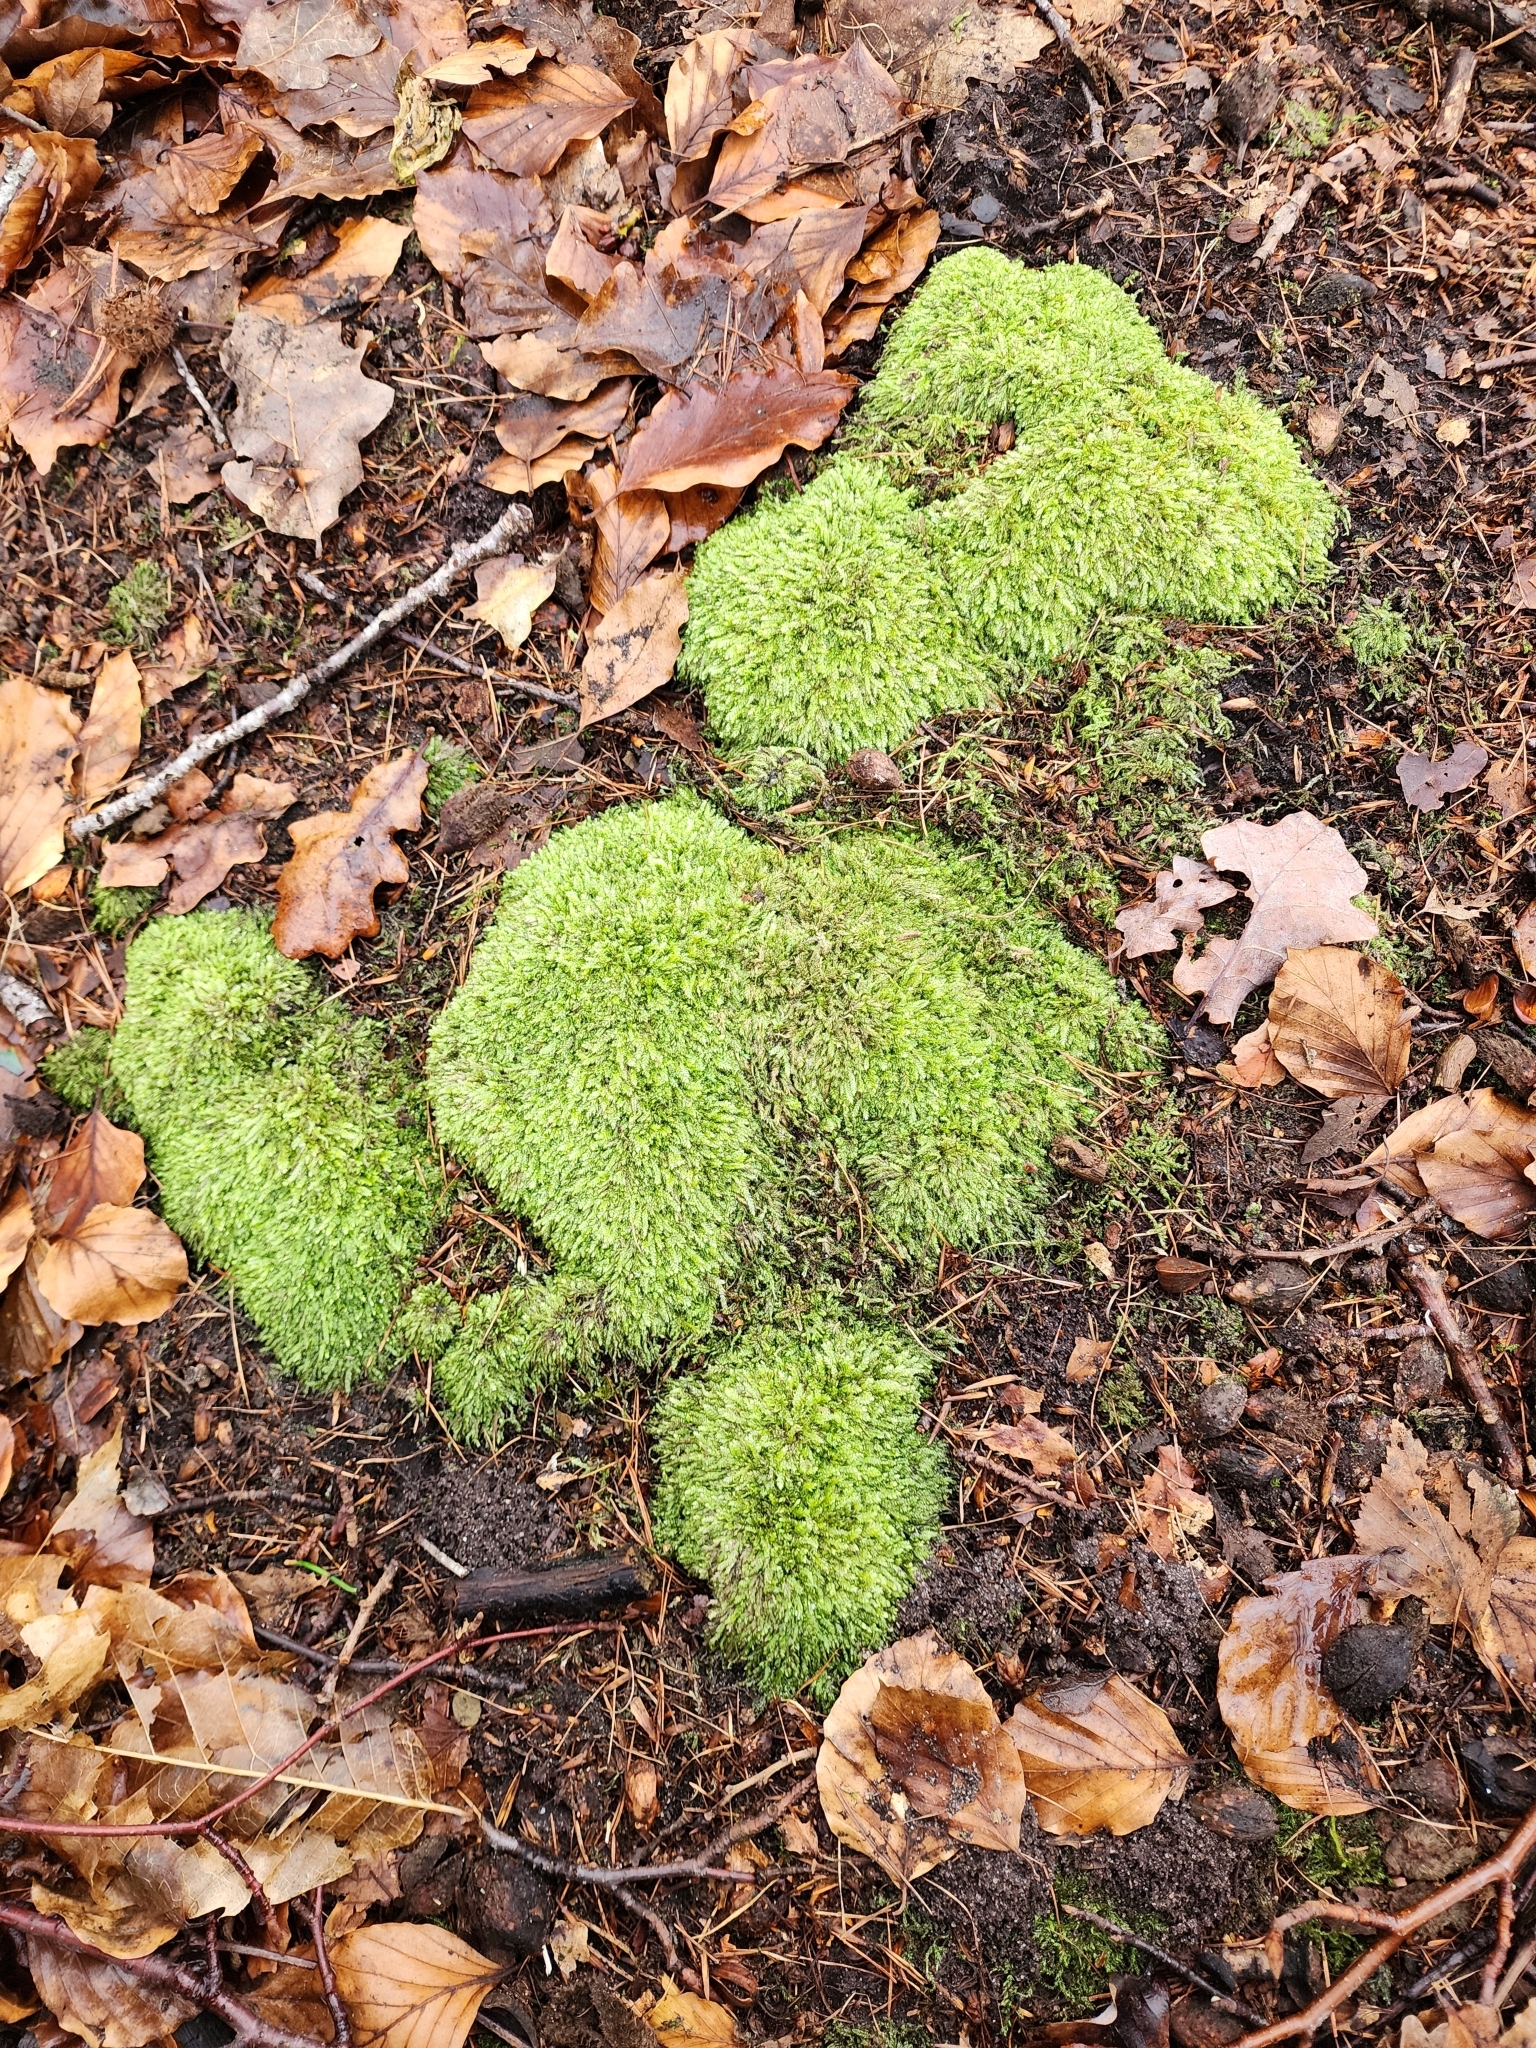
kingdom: Plantae
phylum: Bryophyta
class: Bryopsida
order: Hypnales
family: Plagiotheciaceae
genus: Pseudotaxiphyllum
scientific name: Pseudotaxiphyllum elegans
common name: Elegant silk moss
